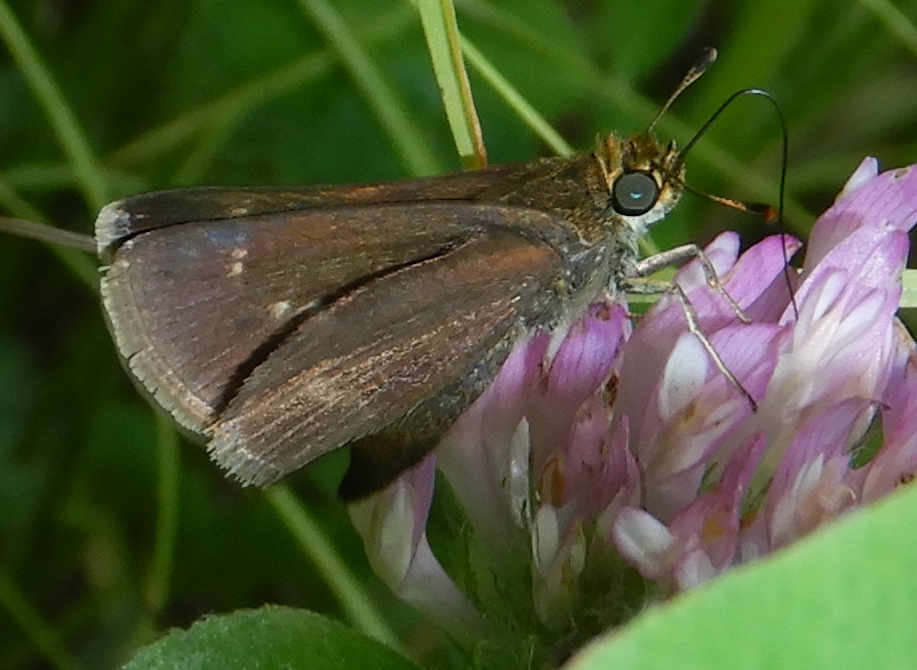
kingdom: Animalia
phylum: Arthropoda
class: Insecta
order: Lepidoptera
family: Hesperiidae
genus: Euphyes
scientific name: Euphyes vestris
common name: Dun skipper
